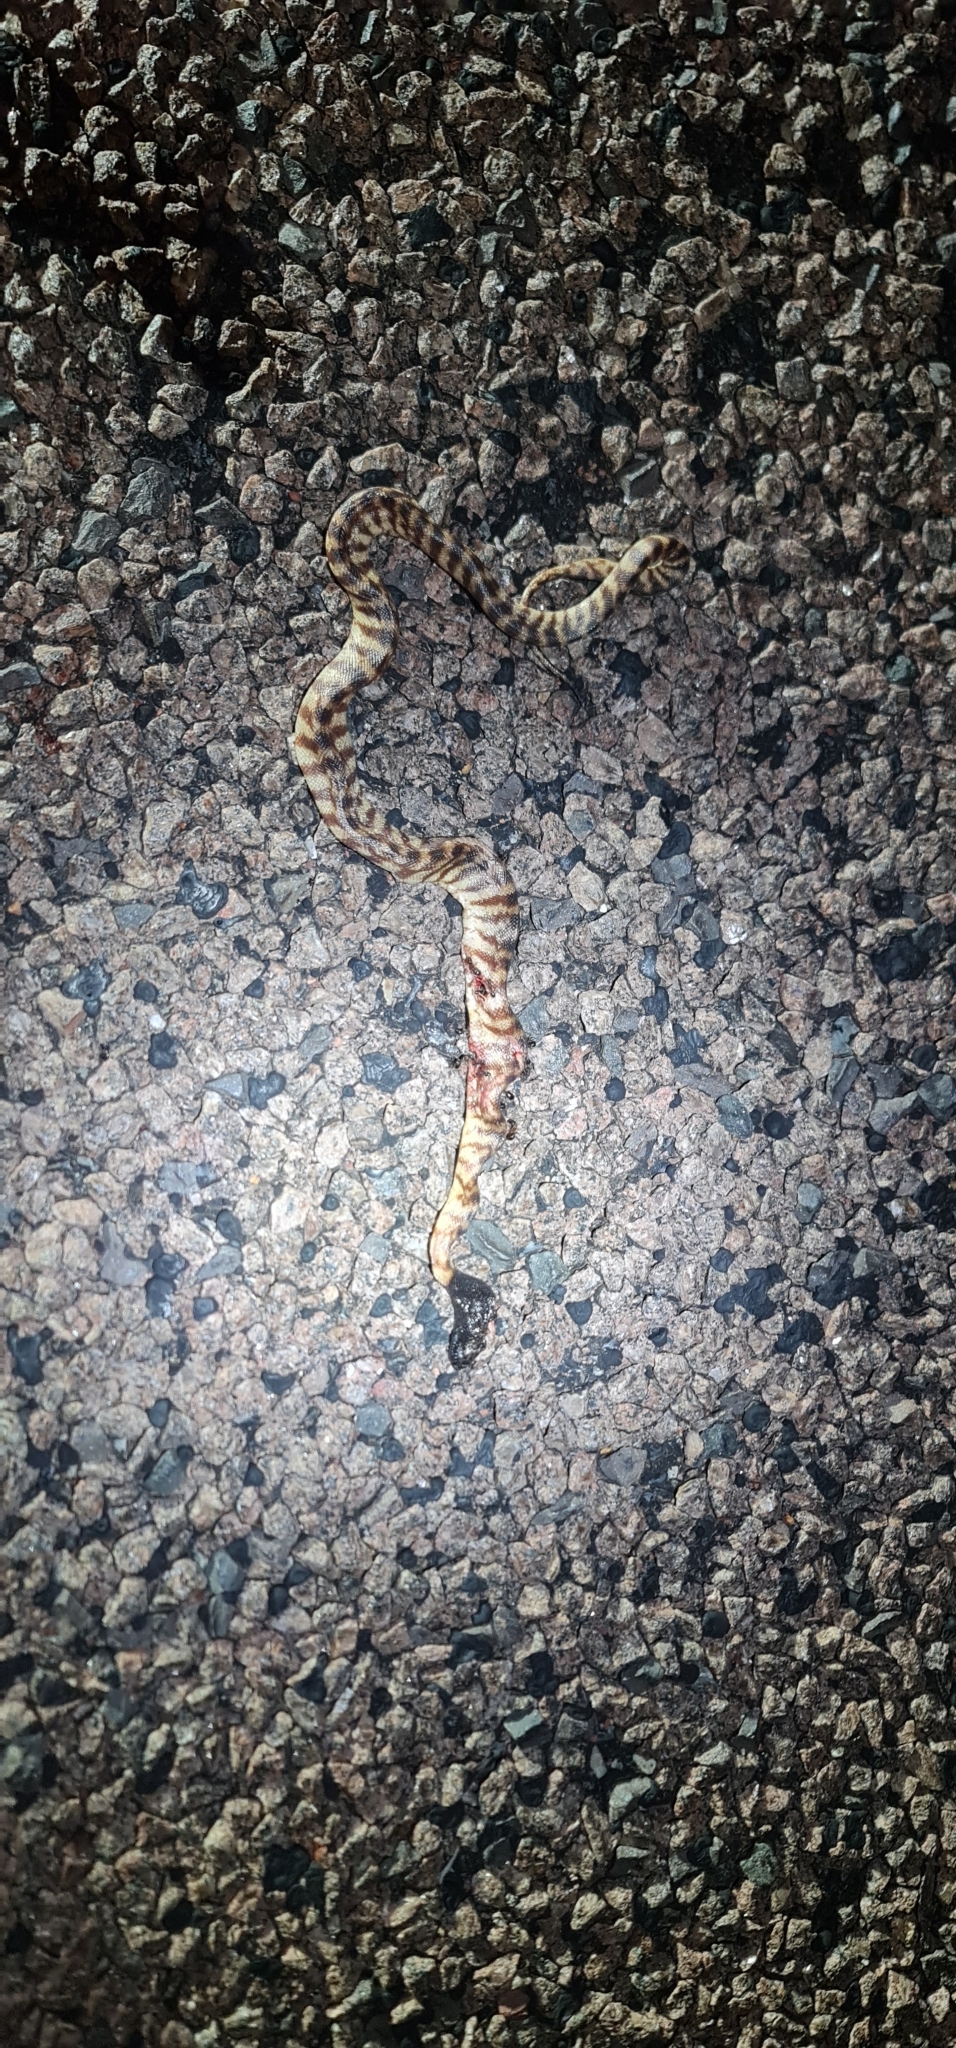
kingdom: Animalia
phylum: Chordata
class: Squamata
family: Pythonidae
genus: Aspidites
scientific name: Aspidites melanocephalus
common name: Black-headed python
